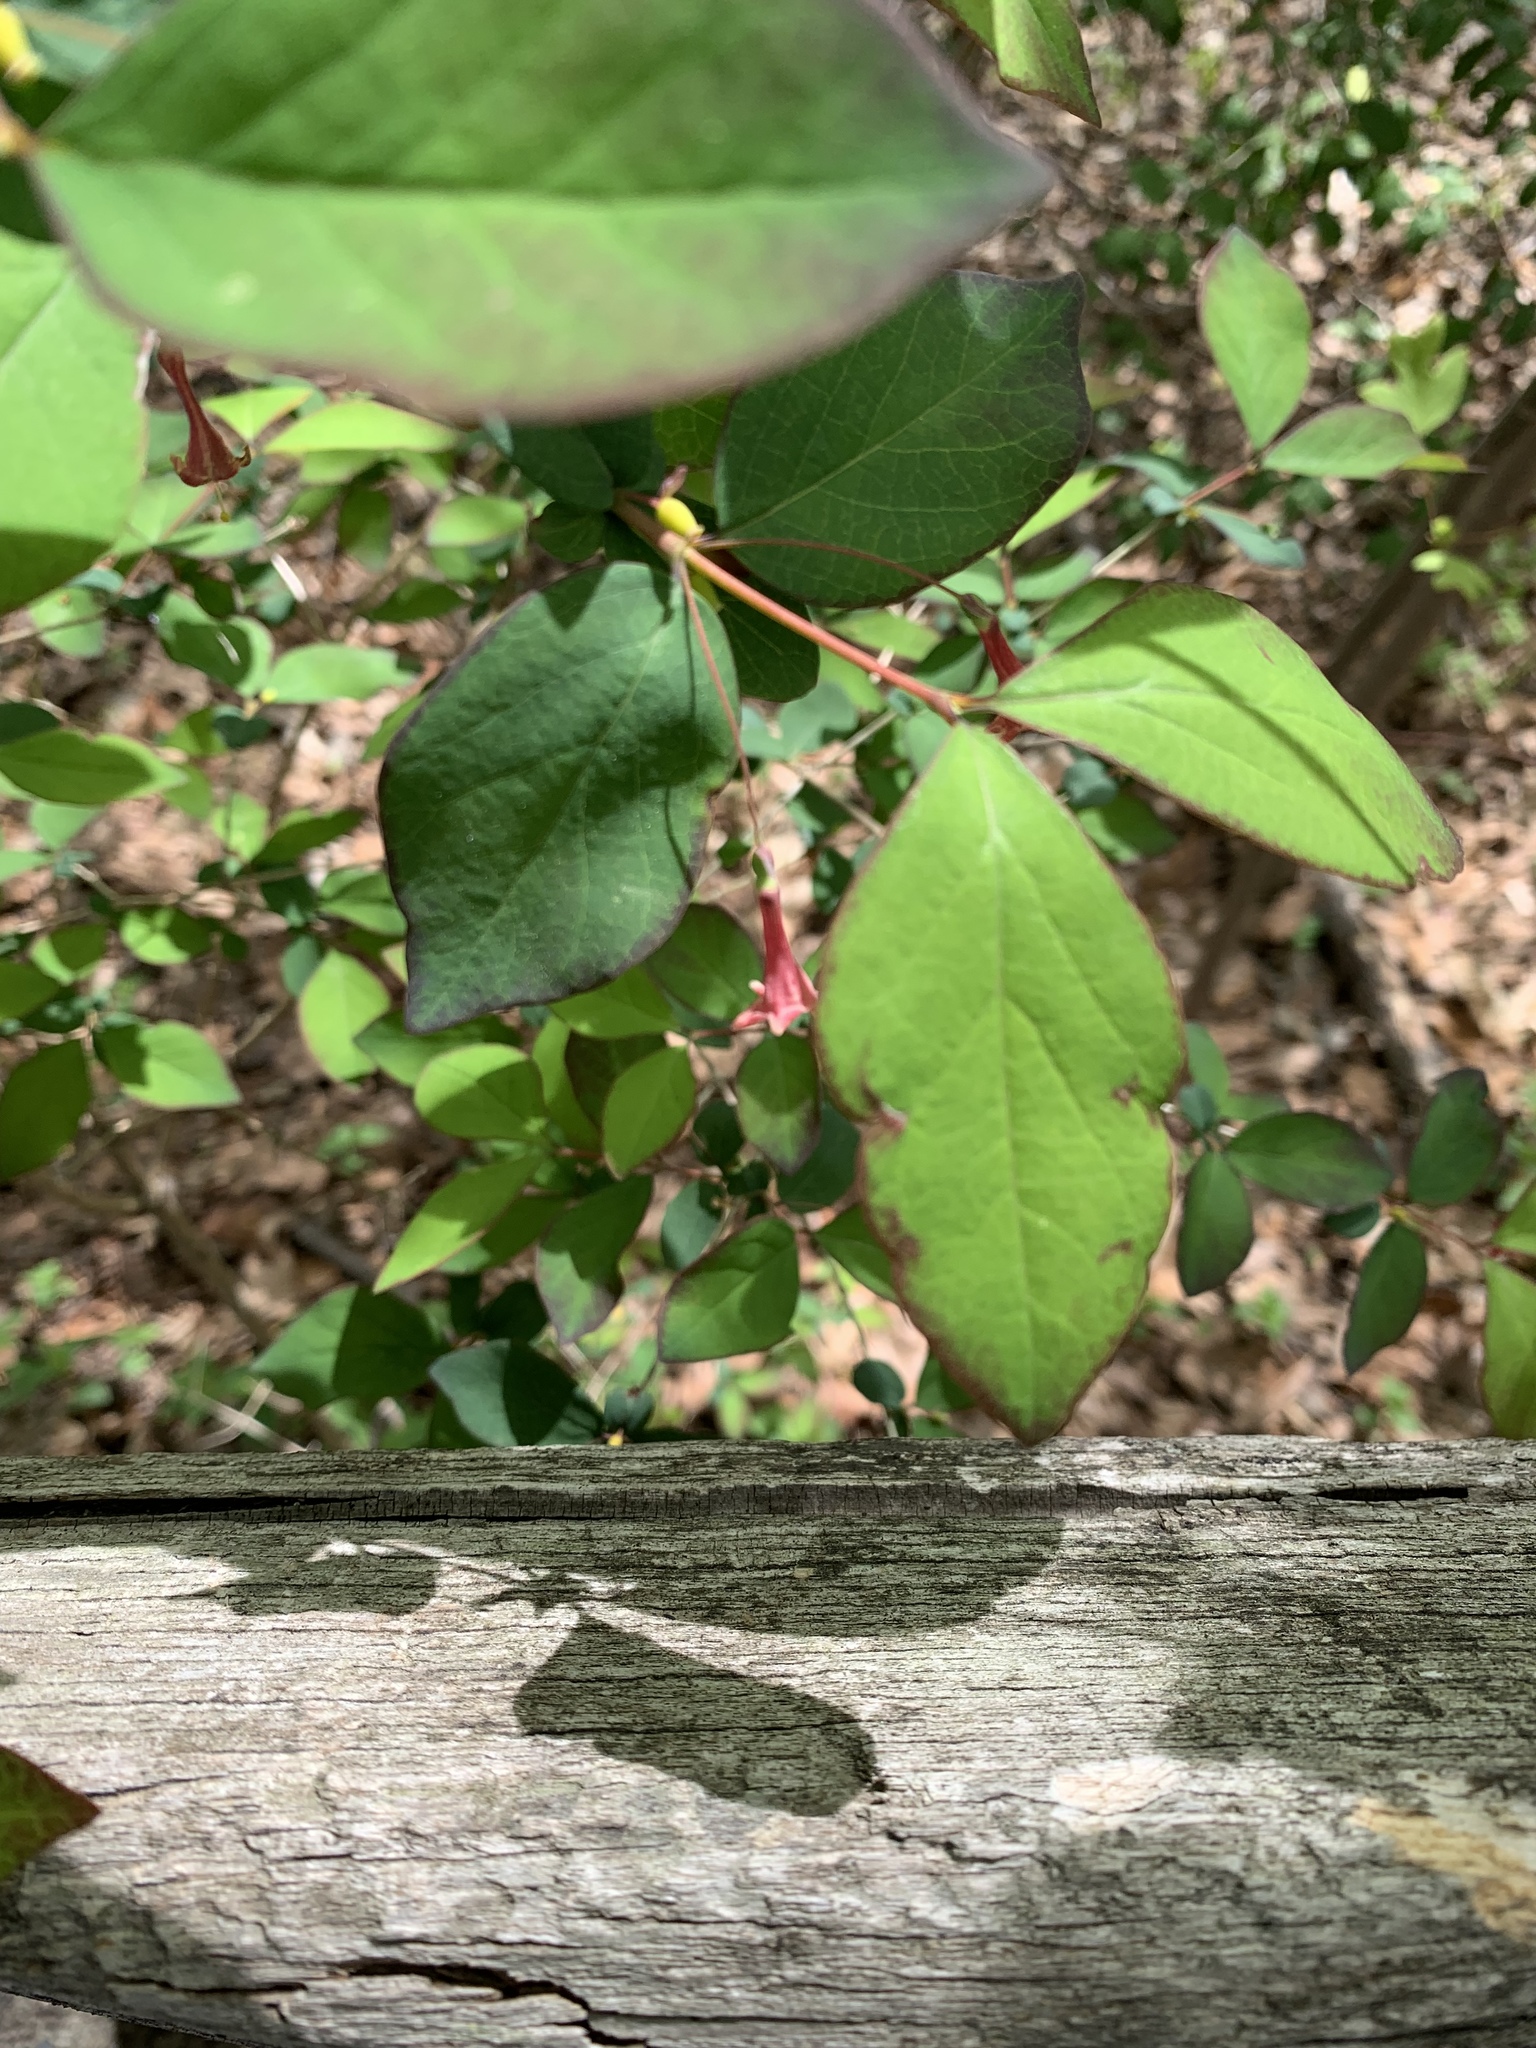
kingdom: Plantae
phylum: Tracheophyta
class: Magnoliopsida
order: Dipsacales
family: Caprifoliaceae
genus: Lonicera
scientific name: Lonicera gracilipes
